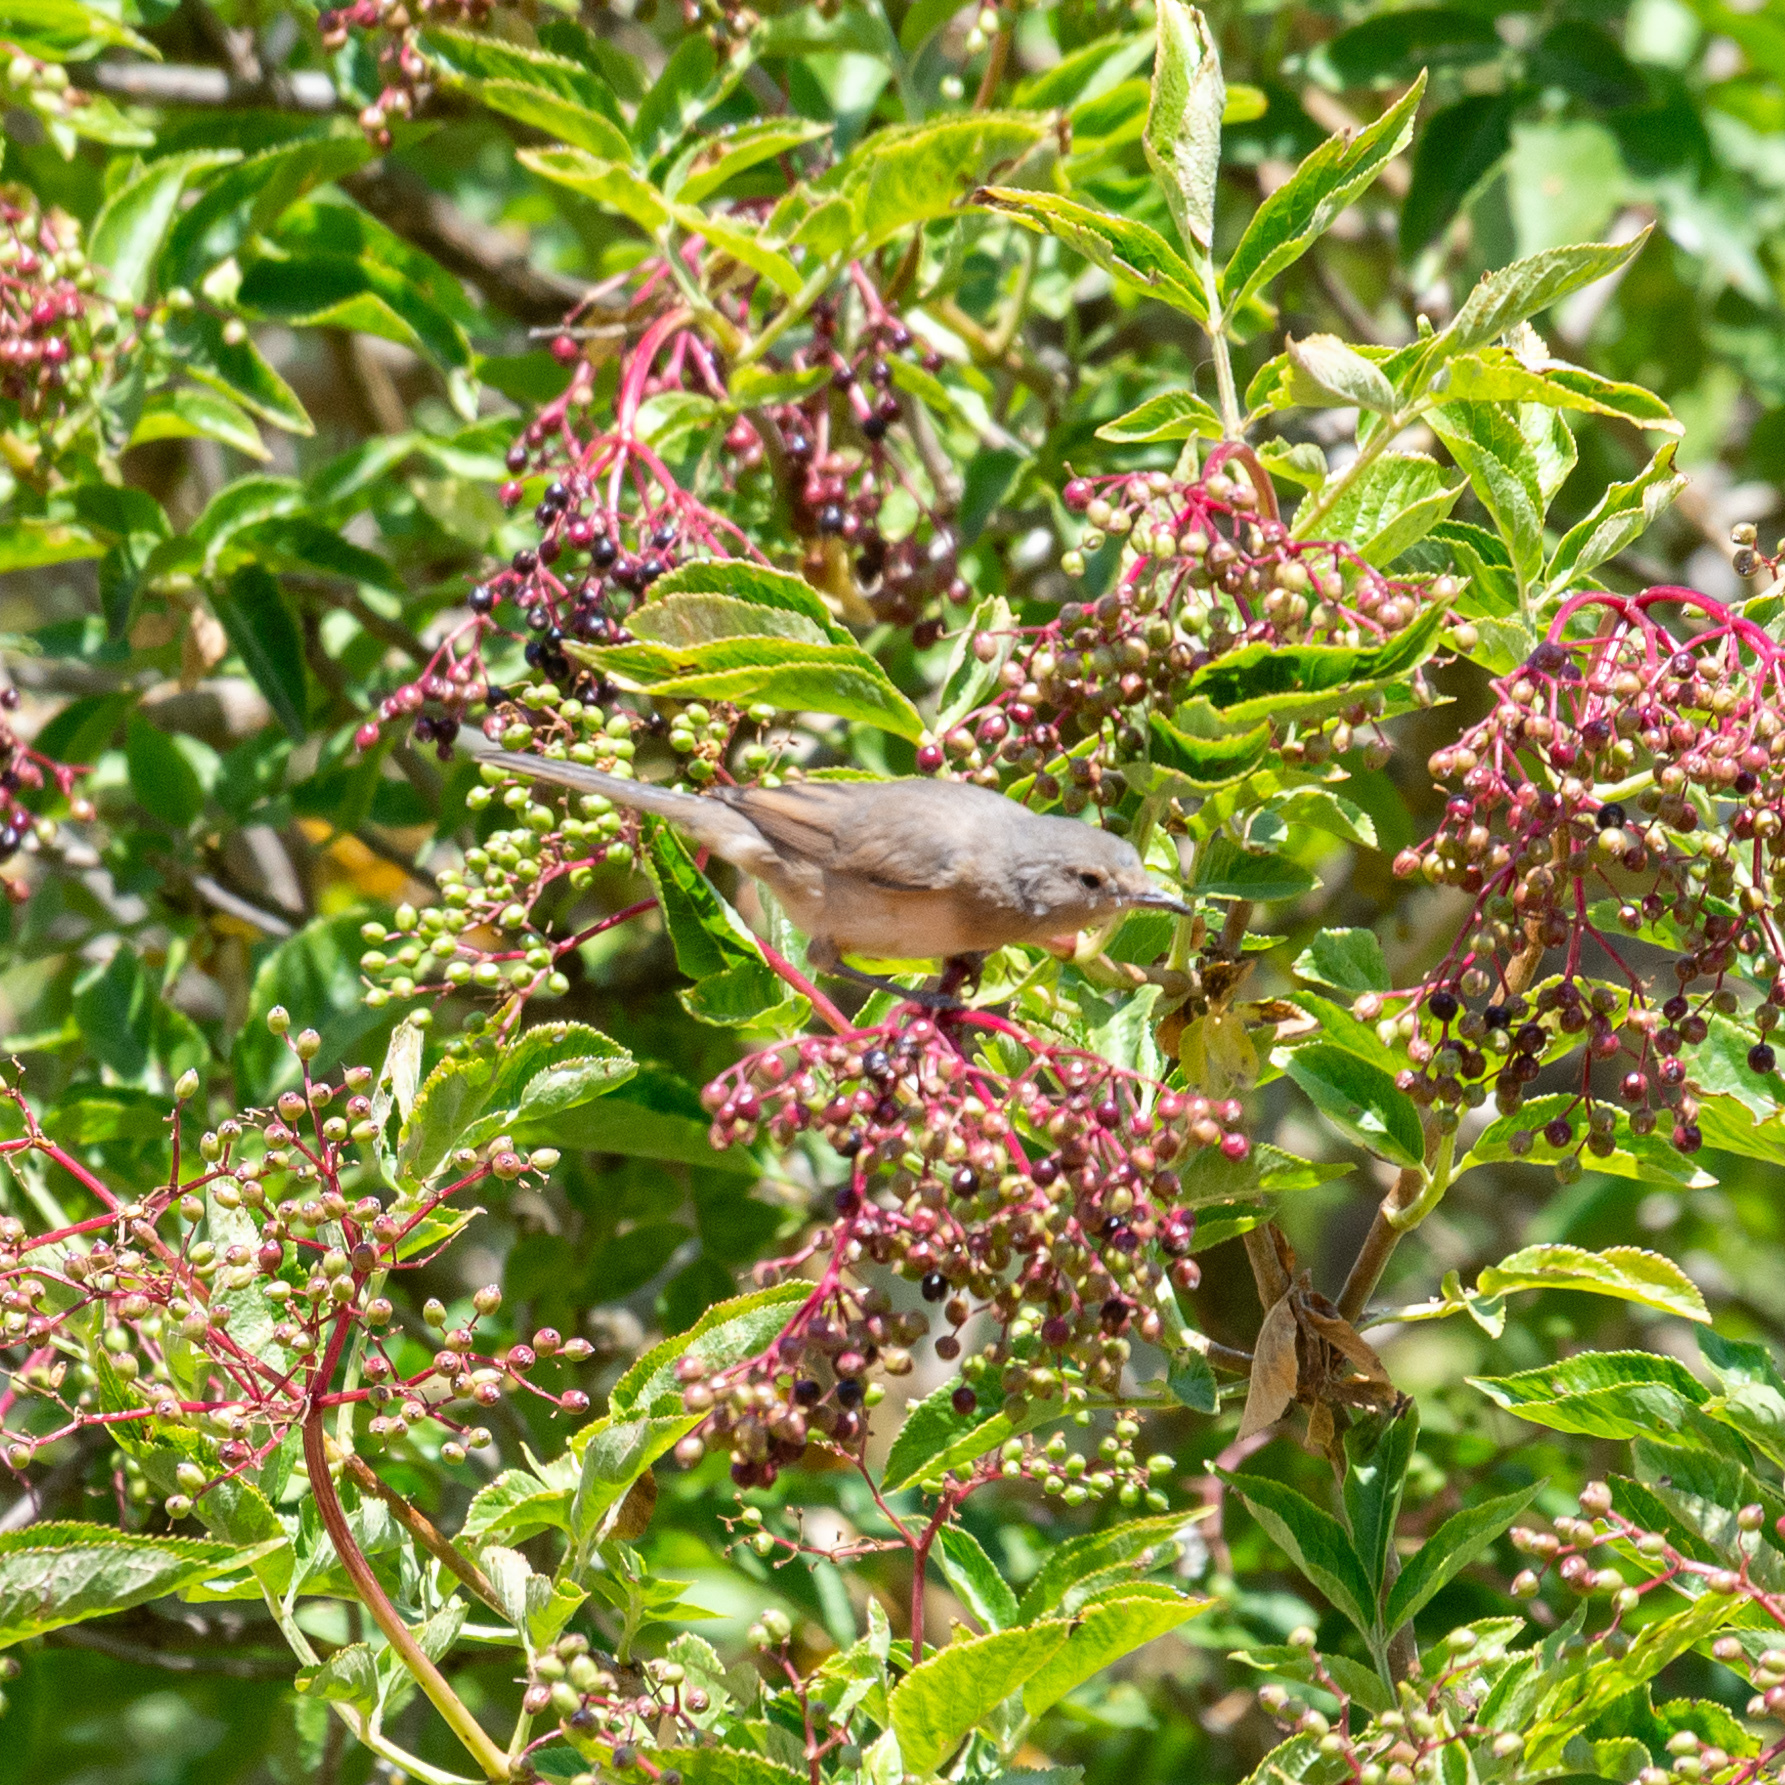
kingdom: Animalia
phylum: Chordata
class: Aves
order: Passeriformes
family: Sylviidae
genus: Curruca
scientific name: Curruca iberiae
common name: Western subalpine warbler
